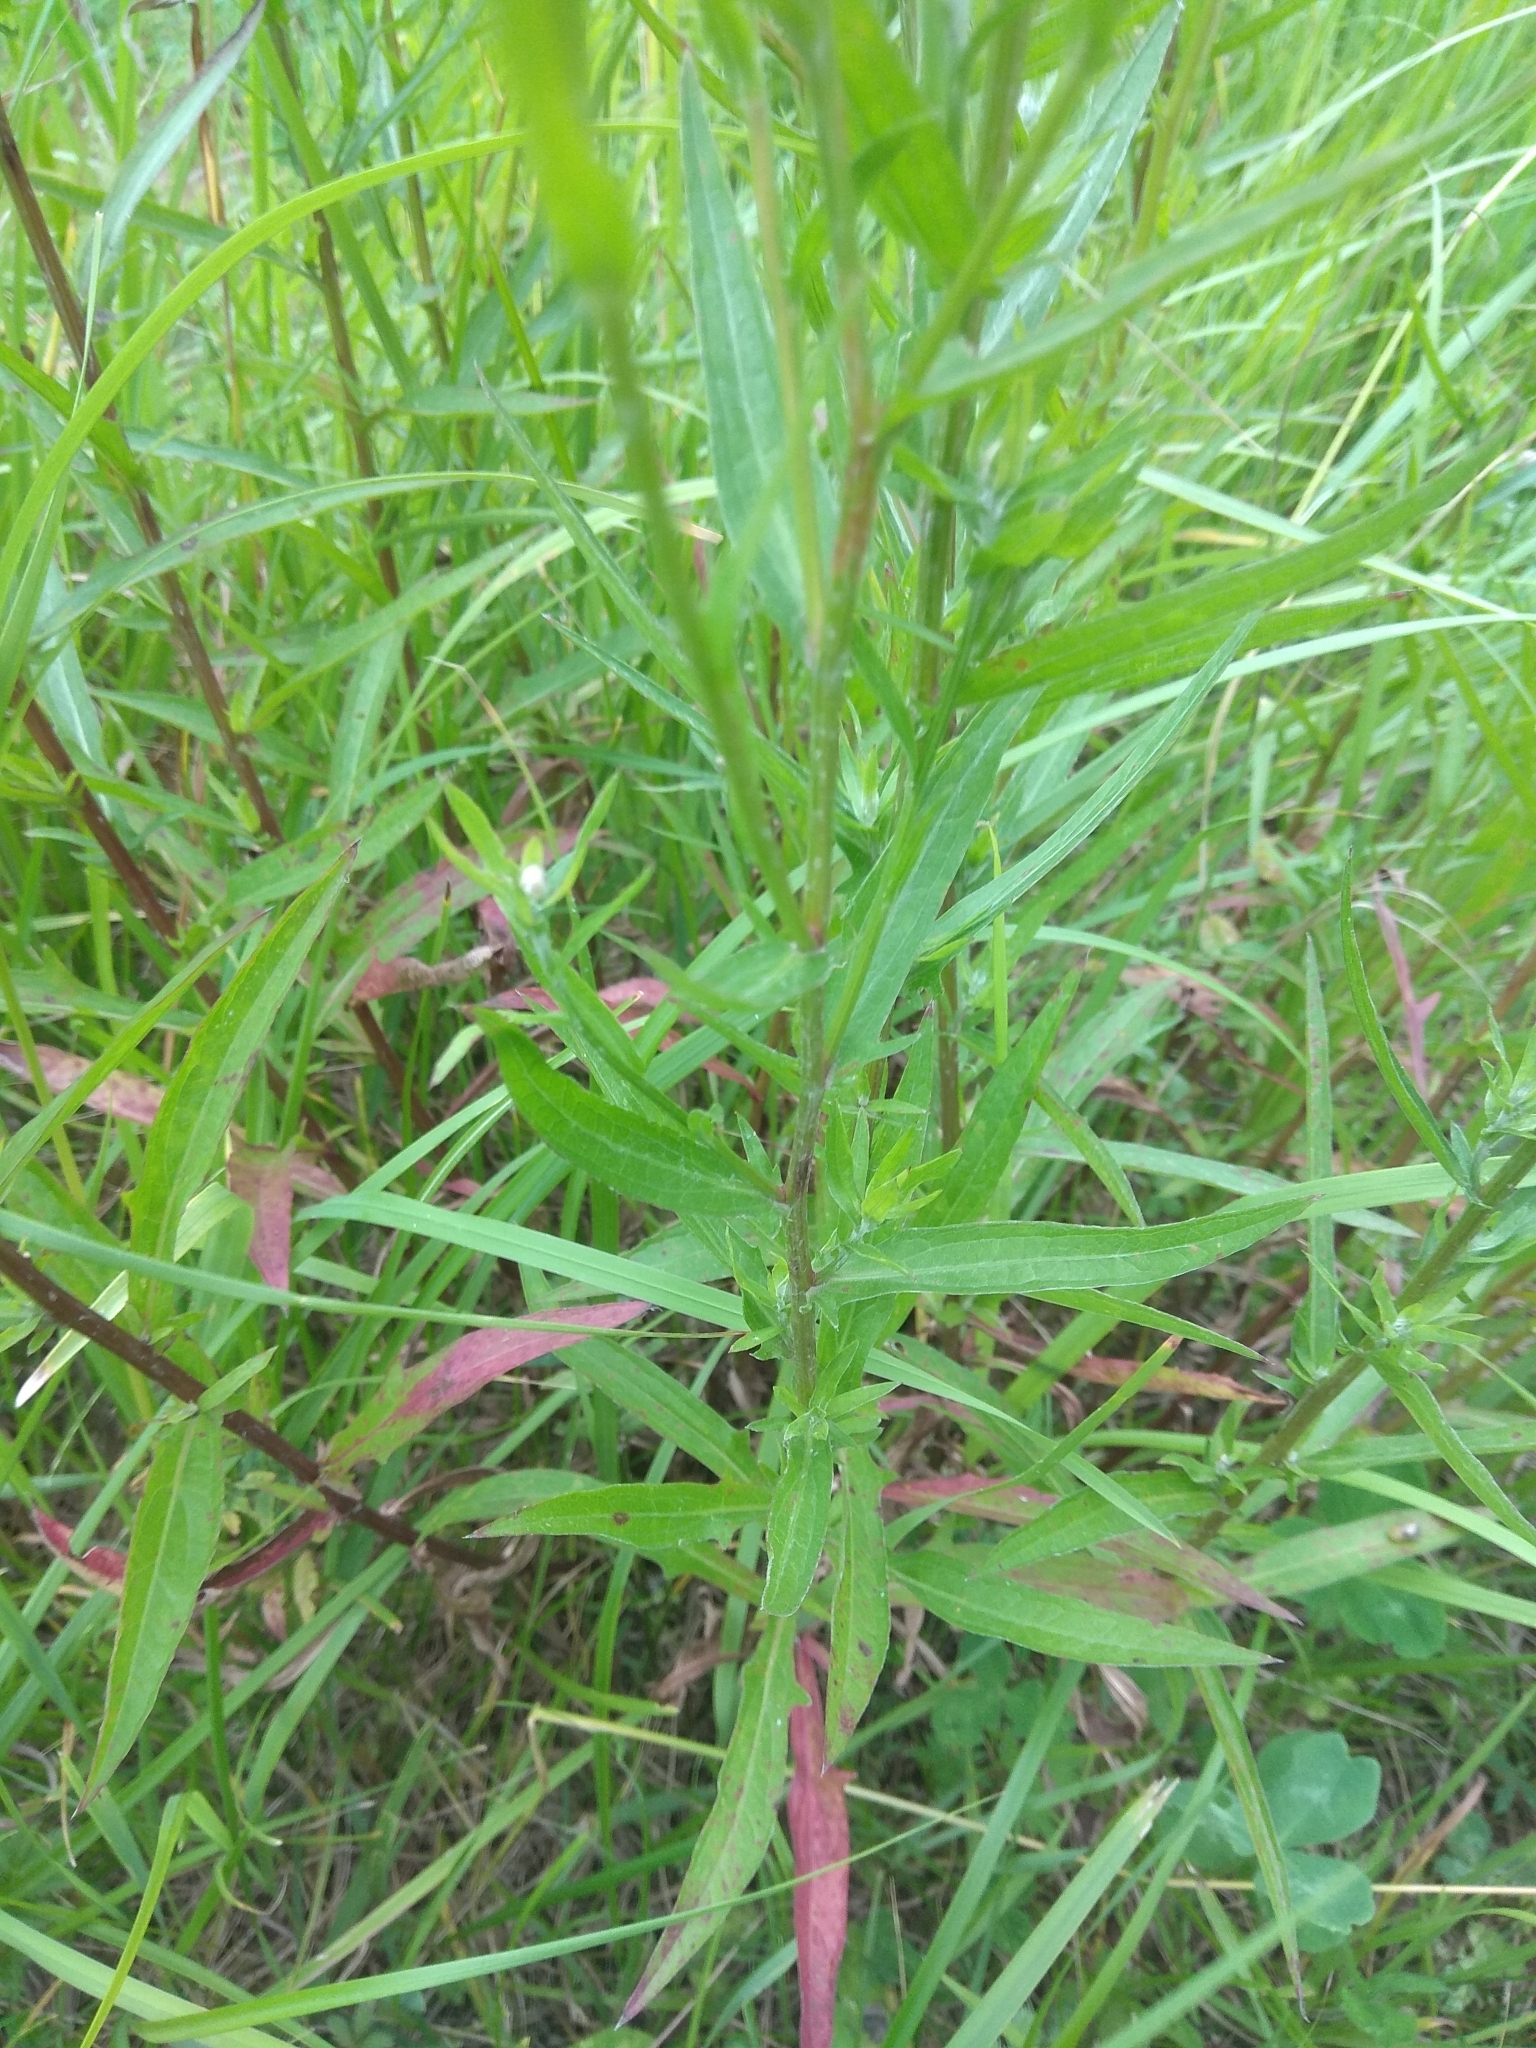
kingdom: Plantae
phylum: Tracheophyta
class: Magnoliopsida
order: Asterales
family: Asteraceae
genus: Centaurea
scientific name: Centaurea jacea
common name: Brown knapweed
